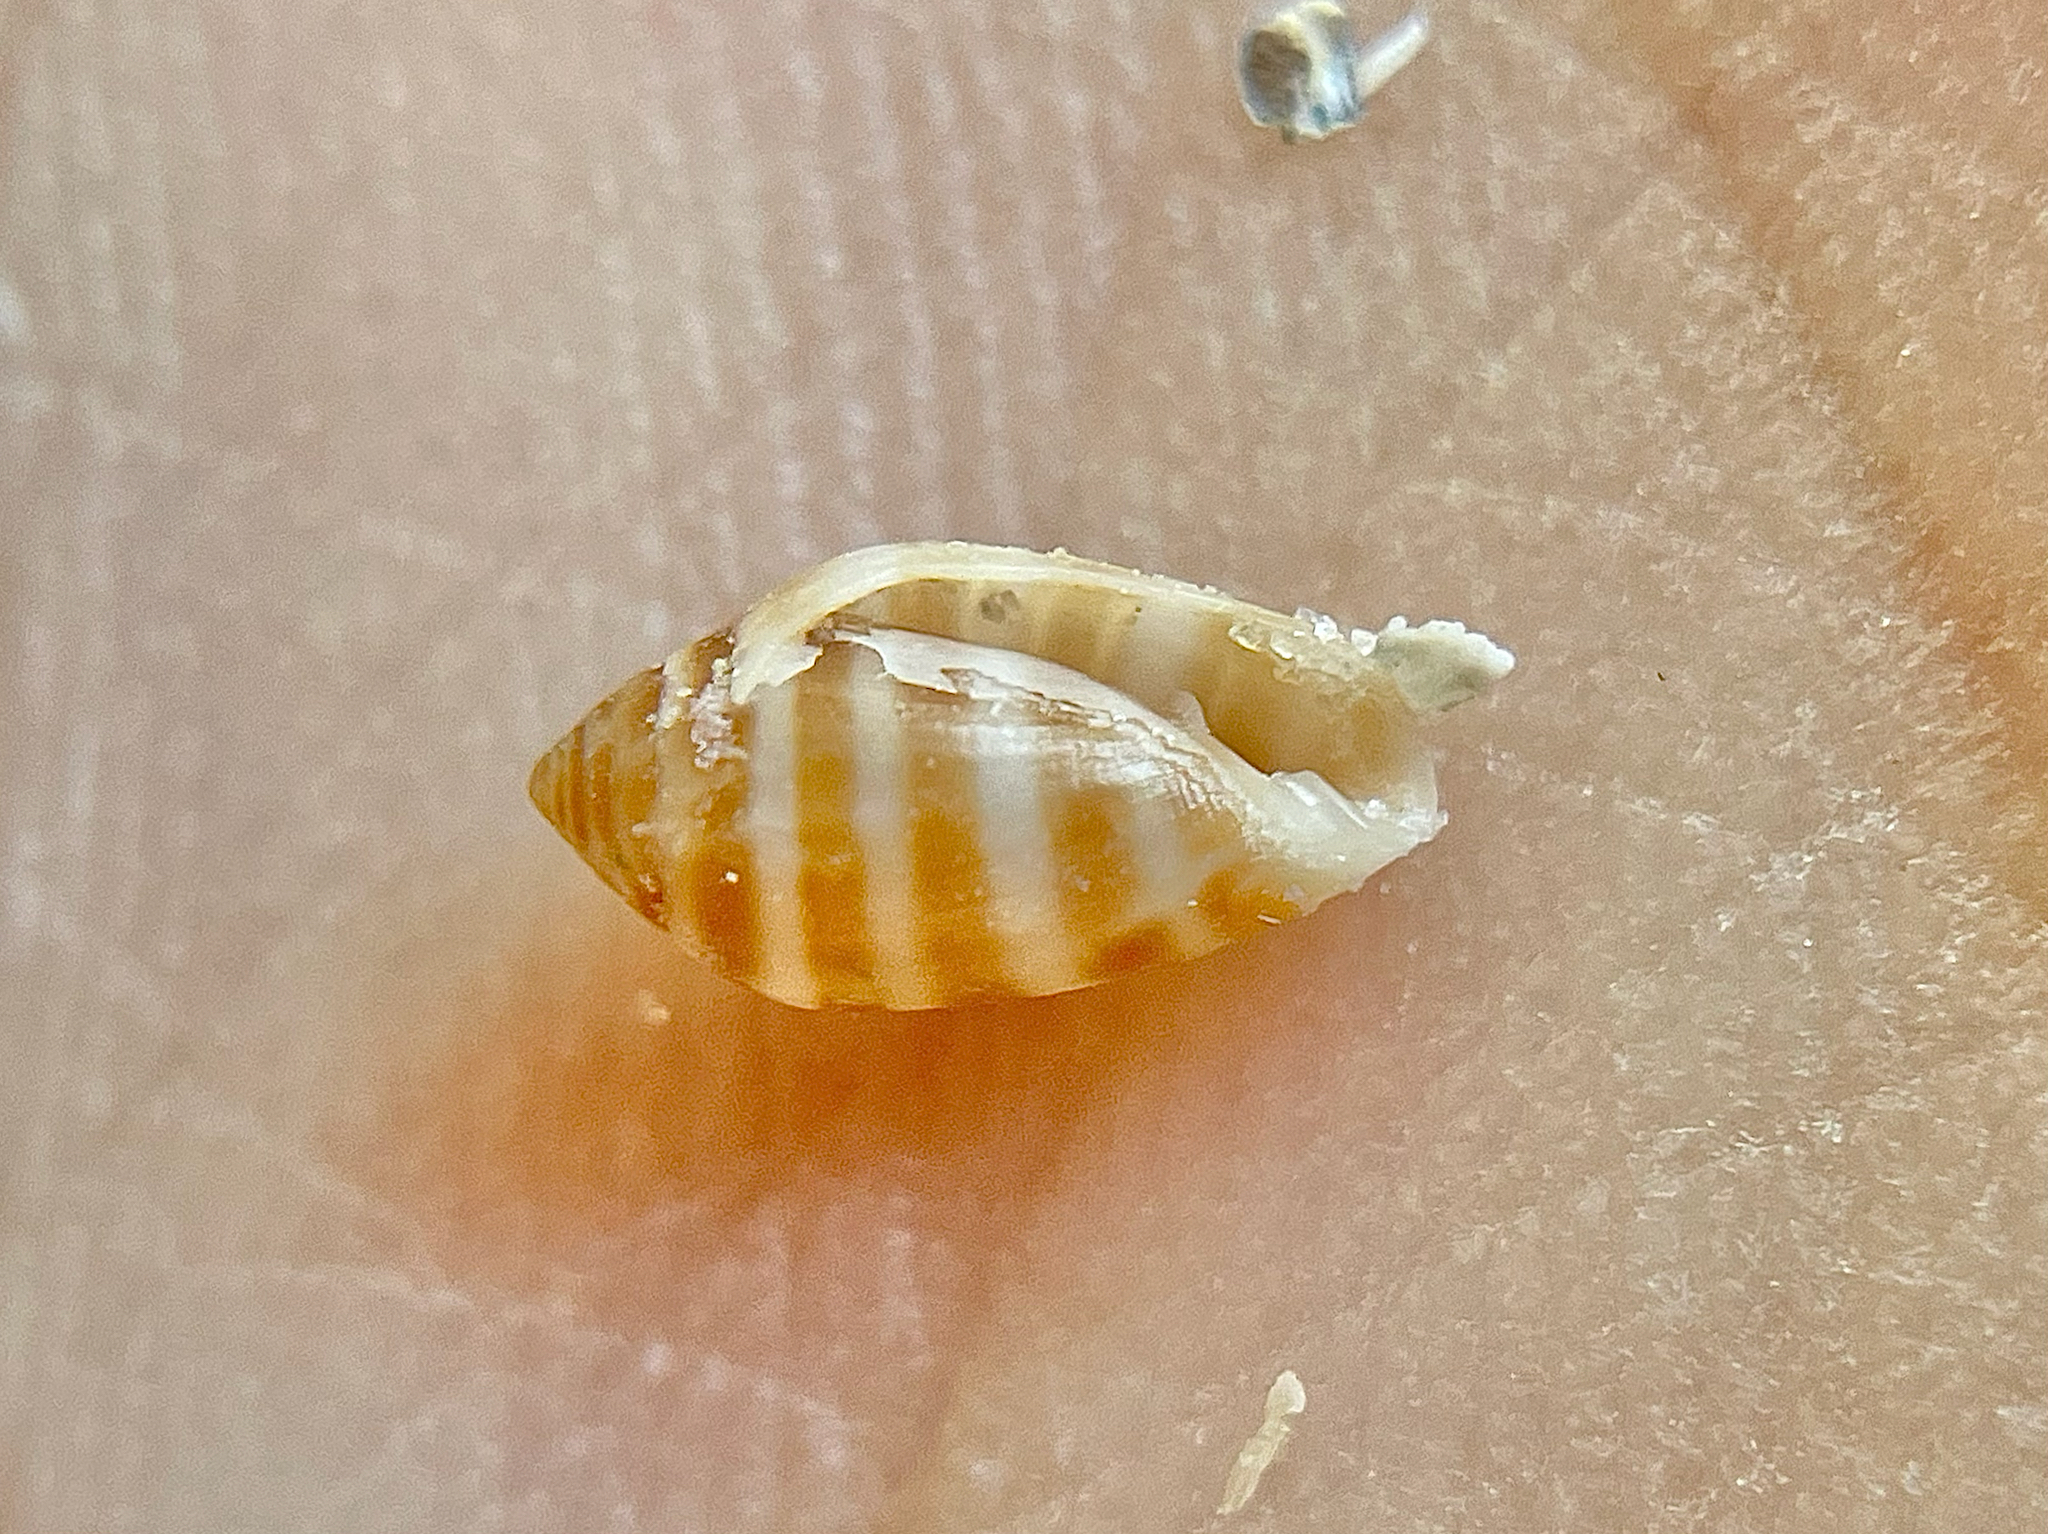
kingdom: Animalia
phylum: Mollusca
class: Gastropoda
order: Ellobiida
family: Ellobiidae
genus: Melampus
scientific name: Melampus bidentatus
